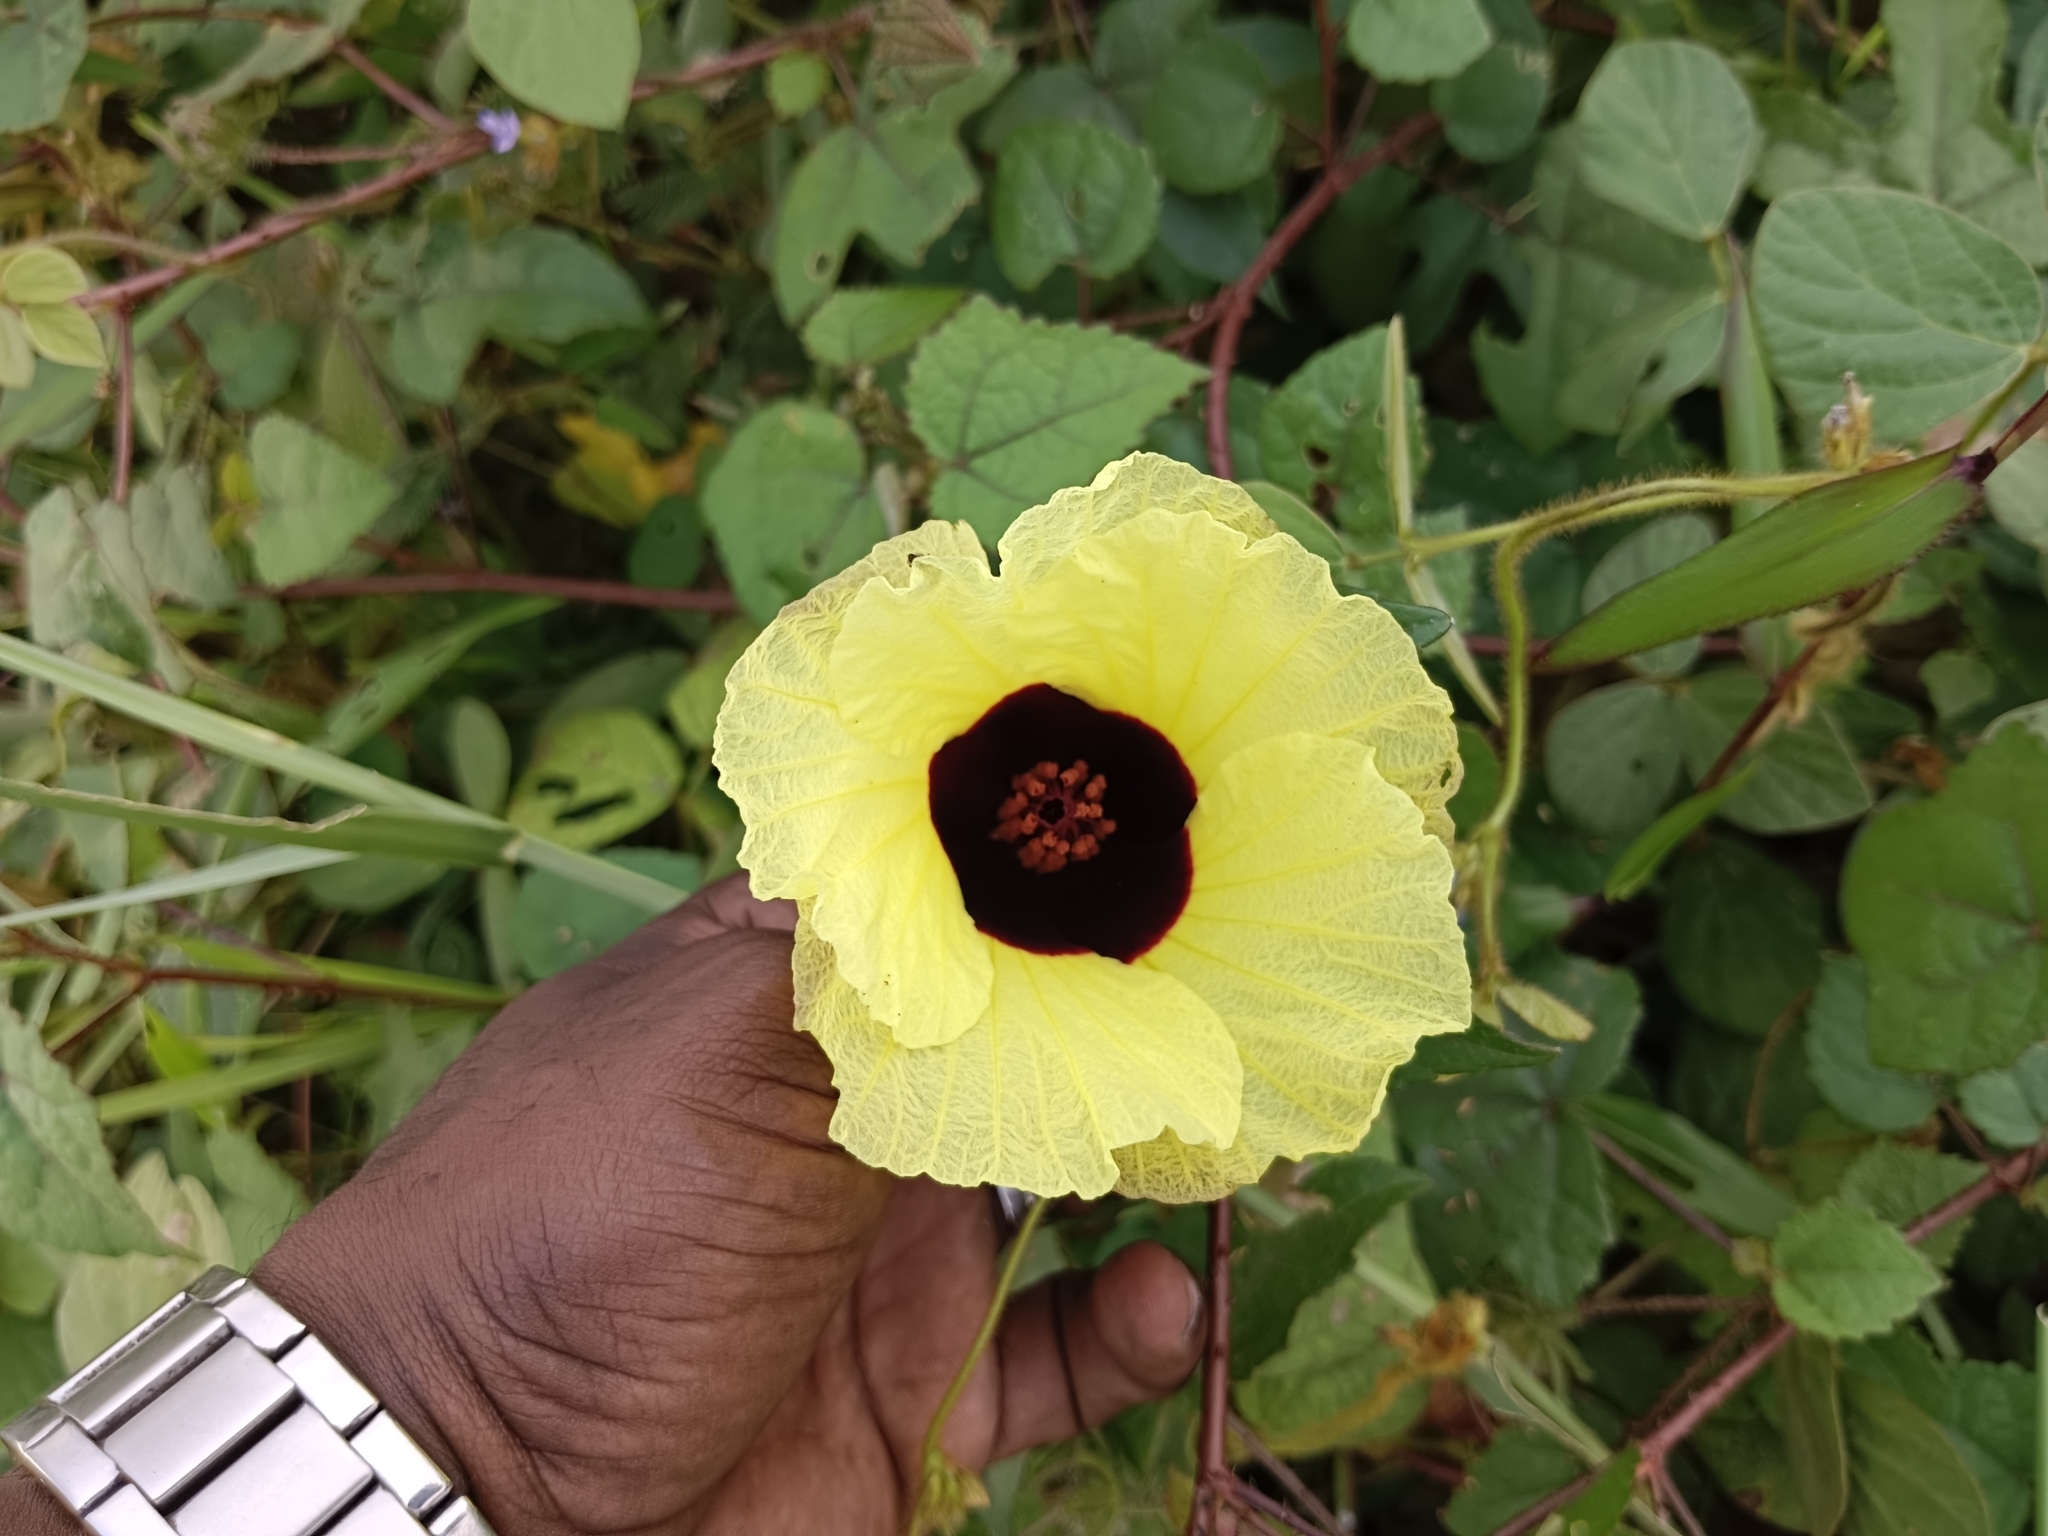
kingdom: Plantae
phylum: Tracheophyta
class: Magnoliopsida
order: Malvales
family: Malvaceae
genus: Hibiscus
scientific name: Hibiscus surattensis
